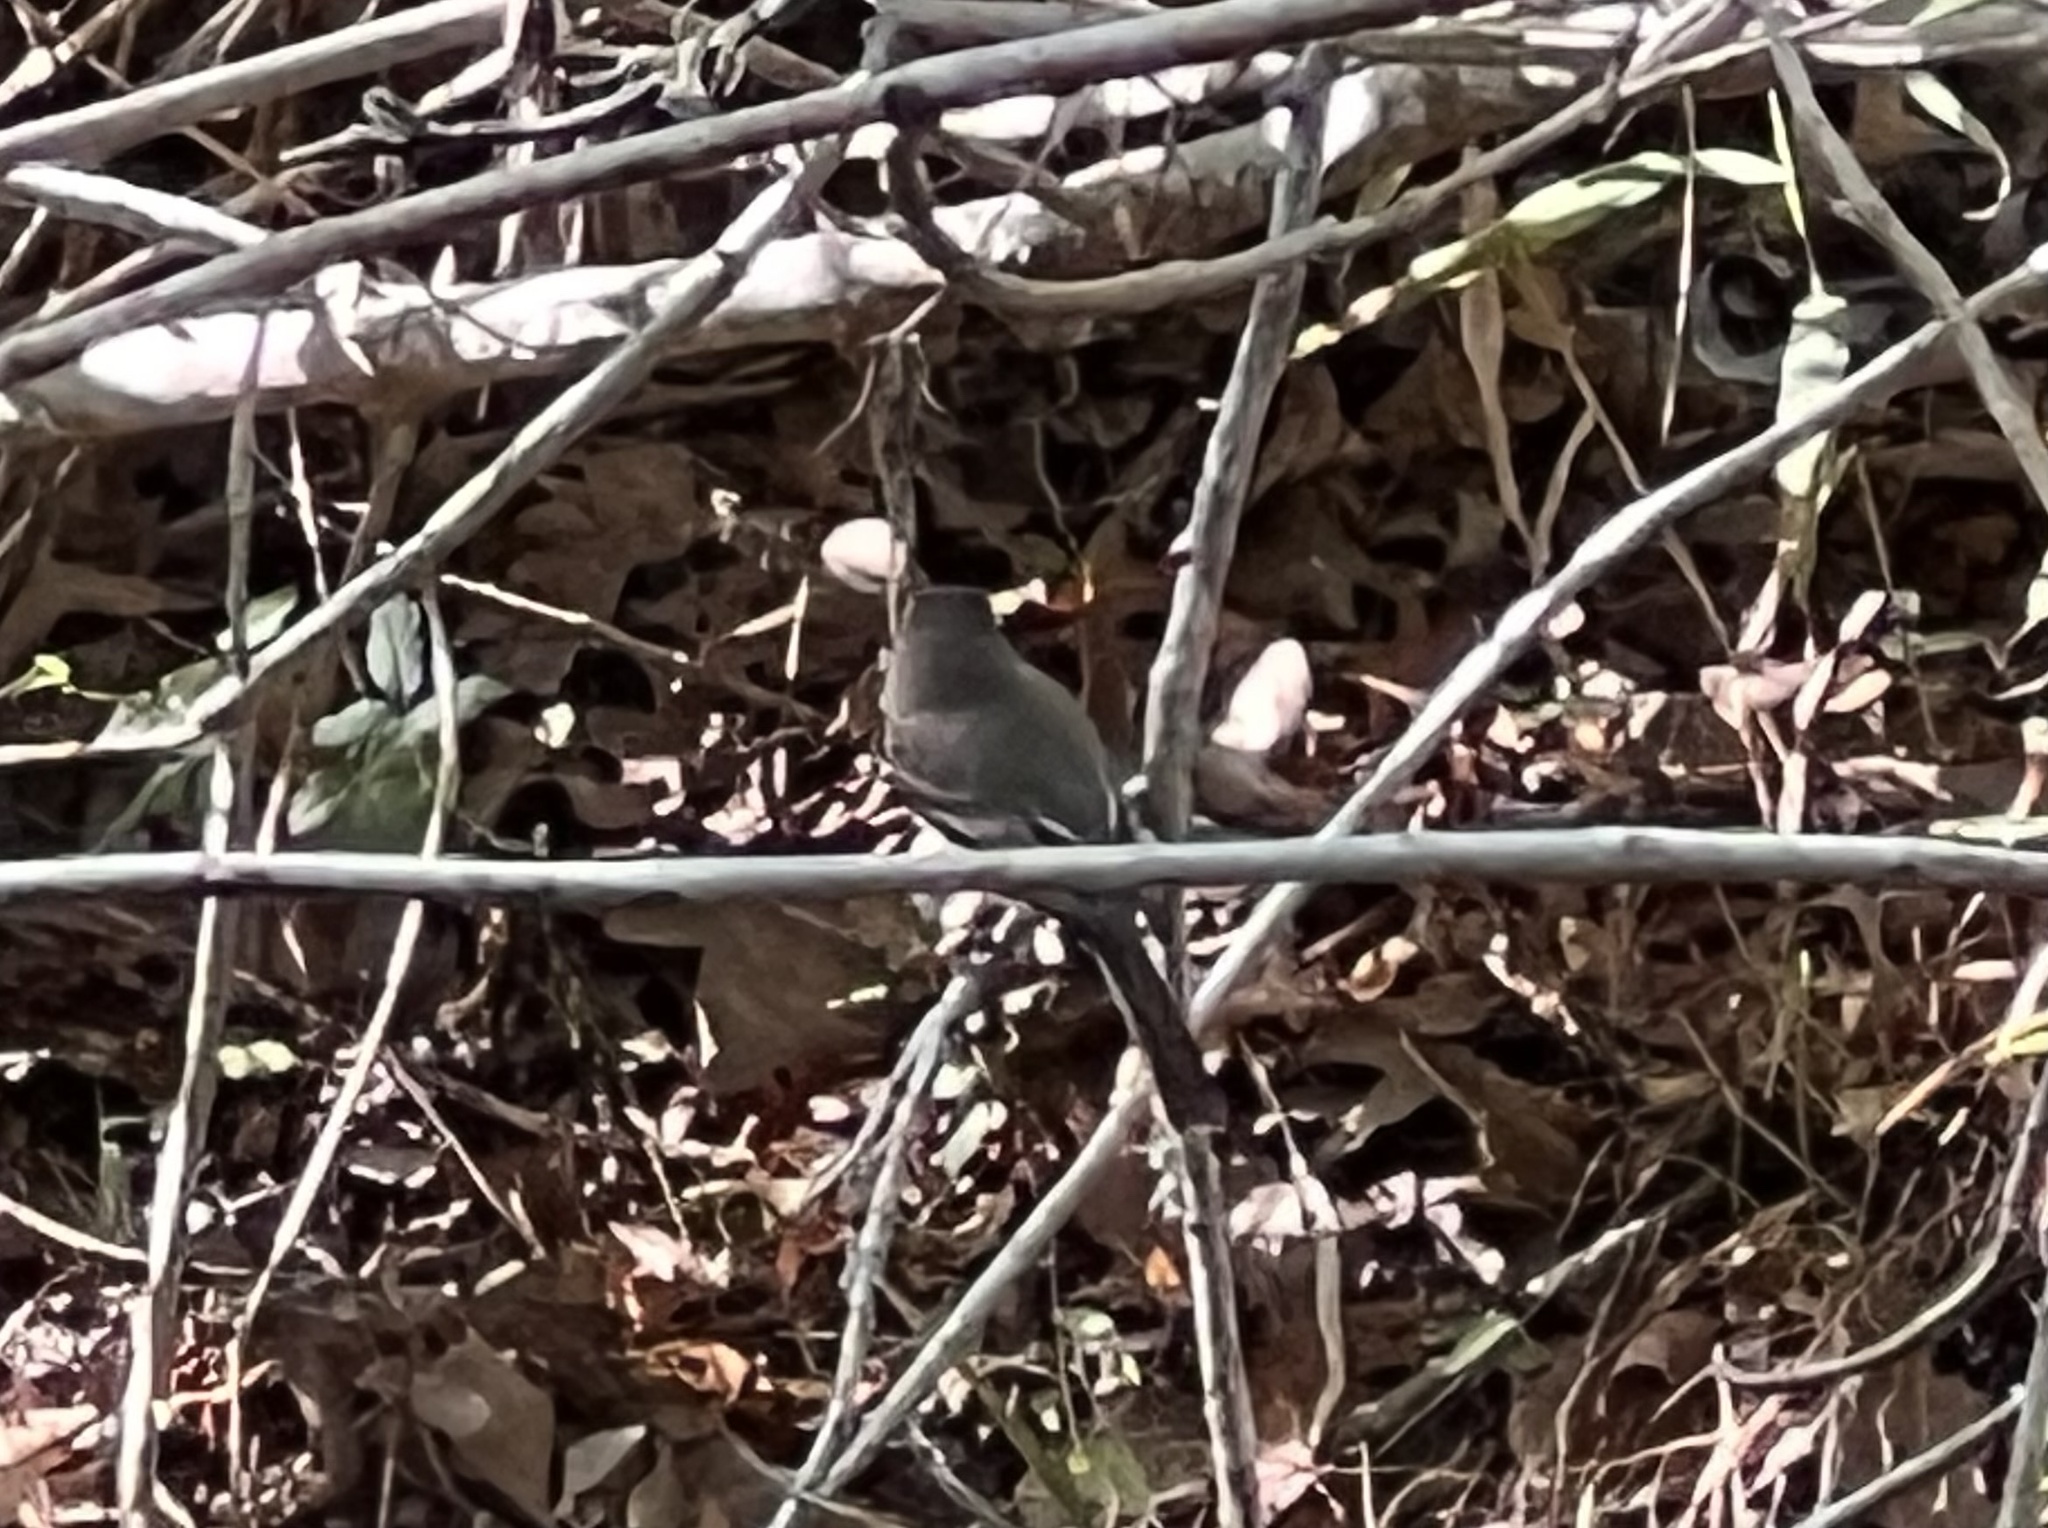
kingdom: Animalia
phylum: Chordata
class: Aves
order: Passeriformes
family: Tyrannidae
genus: Sayornis
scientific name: Sayornis phoebe
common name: Eastern phoebe
